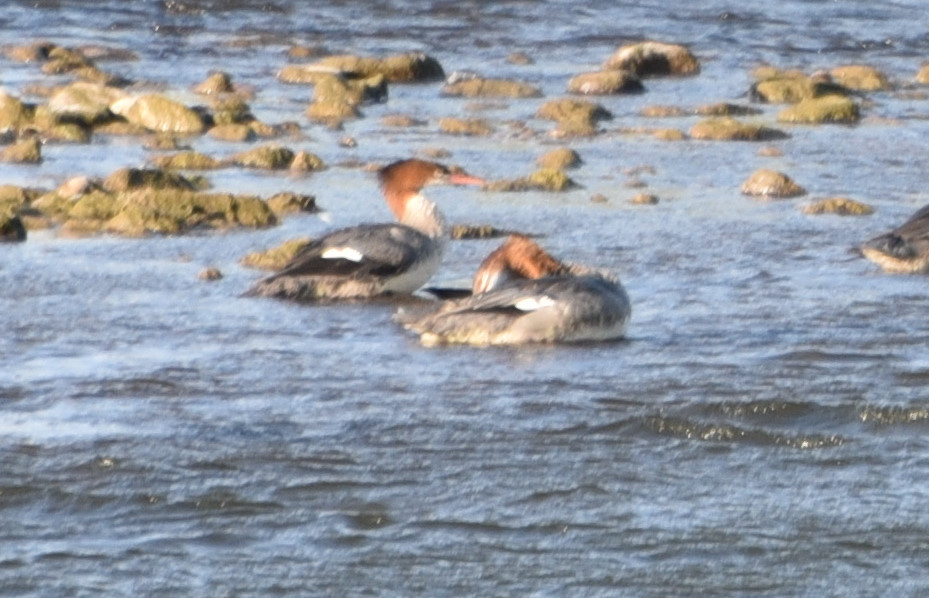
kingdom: Animalia
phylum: Chordata
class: Aves
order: Anseriformes
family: Anatidae
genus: Mergus
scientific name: Mergus merganser
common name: Common merganser
